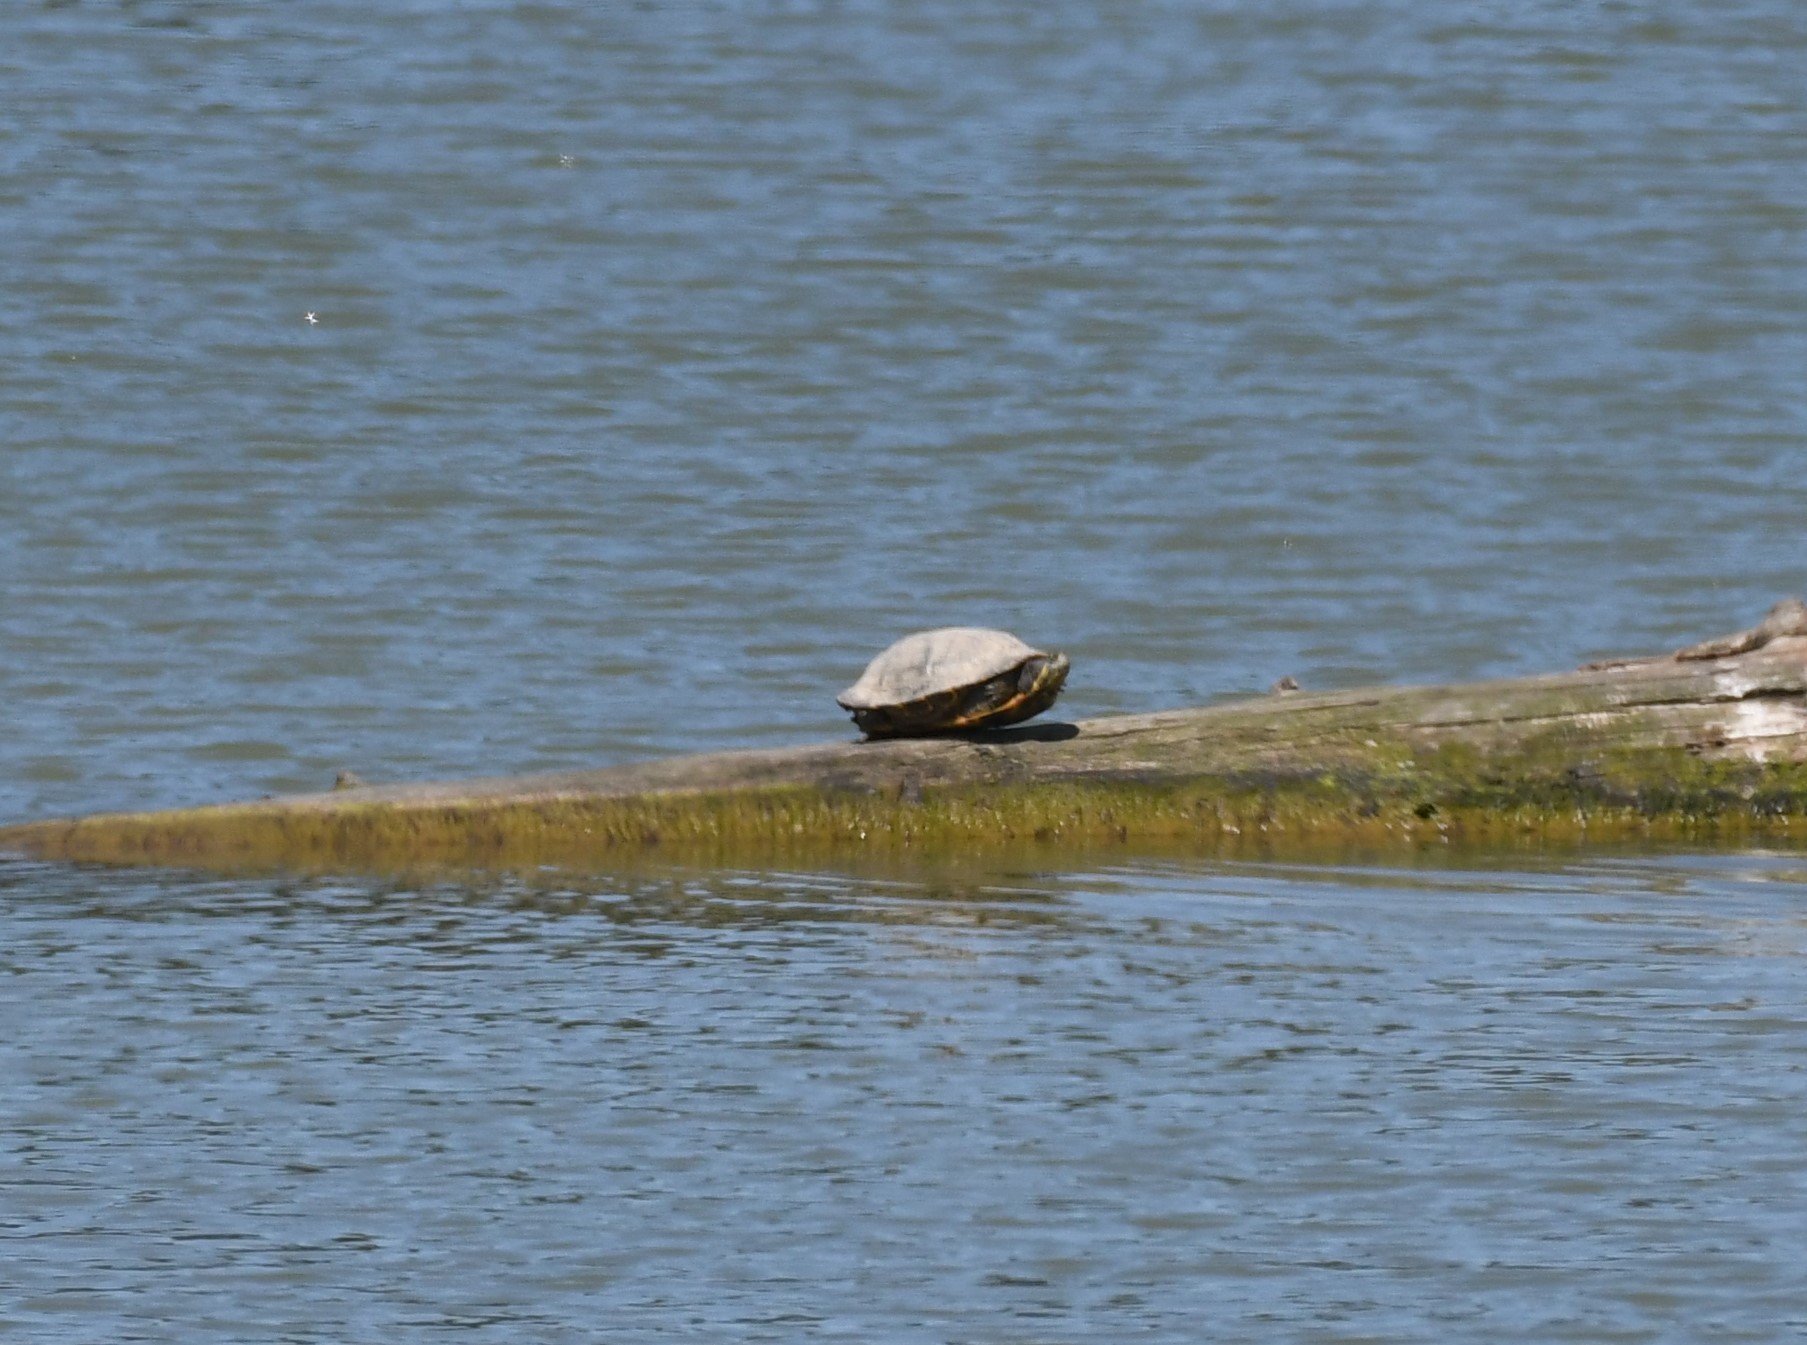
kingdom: Animalia
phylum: Chordata
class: Testudines
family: Emydidae
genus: Trachemys
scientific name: Trachemys scripta
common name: Slider
